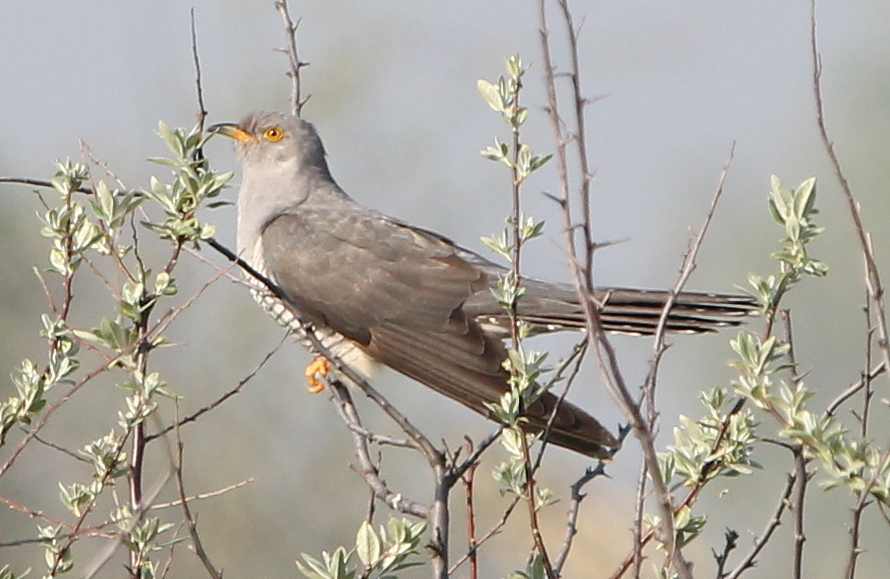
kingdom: Animalia
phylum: Chordata
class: Aves
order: Cuculiformes
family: Cuculidae
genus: Cuculus
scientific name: Cuculus canorus
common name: Common cuckoo
